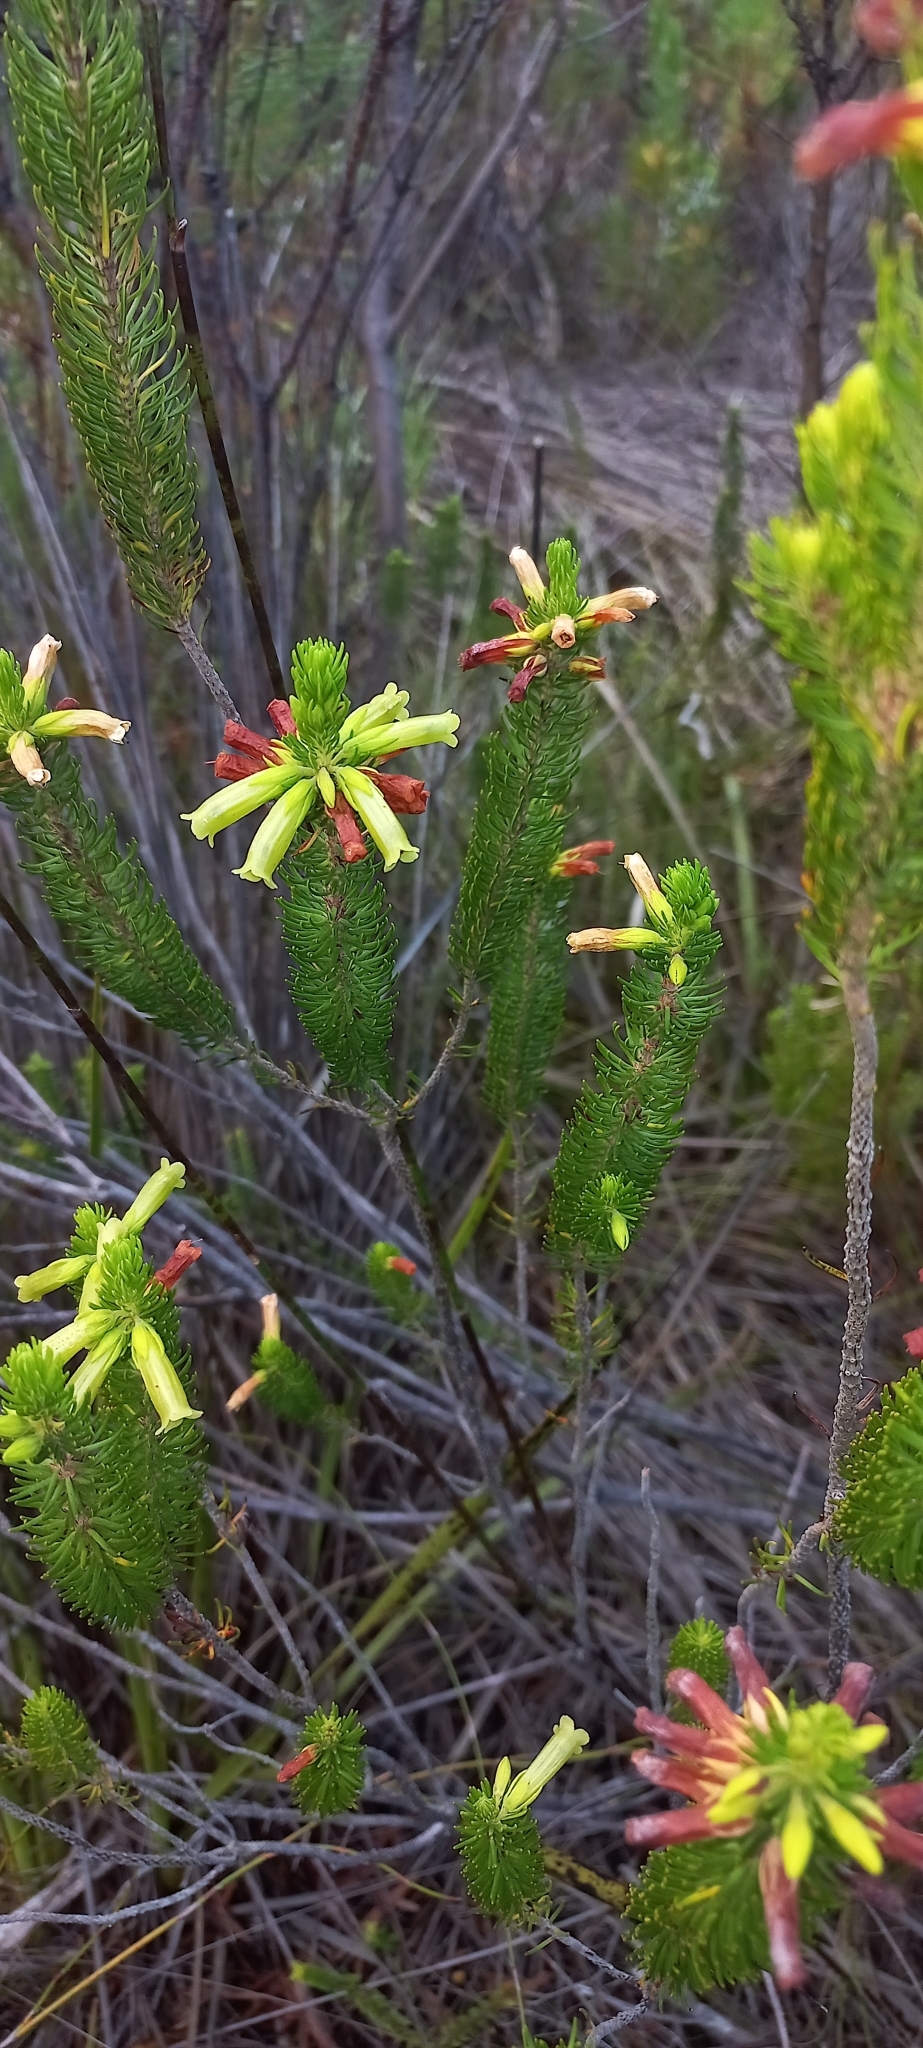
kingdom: Plantae
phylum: Tracheophyta
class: Magnoliopsida
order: Ericales
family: Ericaceae
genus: Erica
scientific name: Erica viscaria
